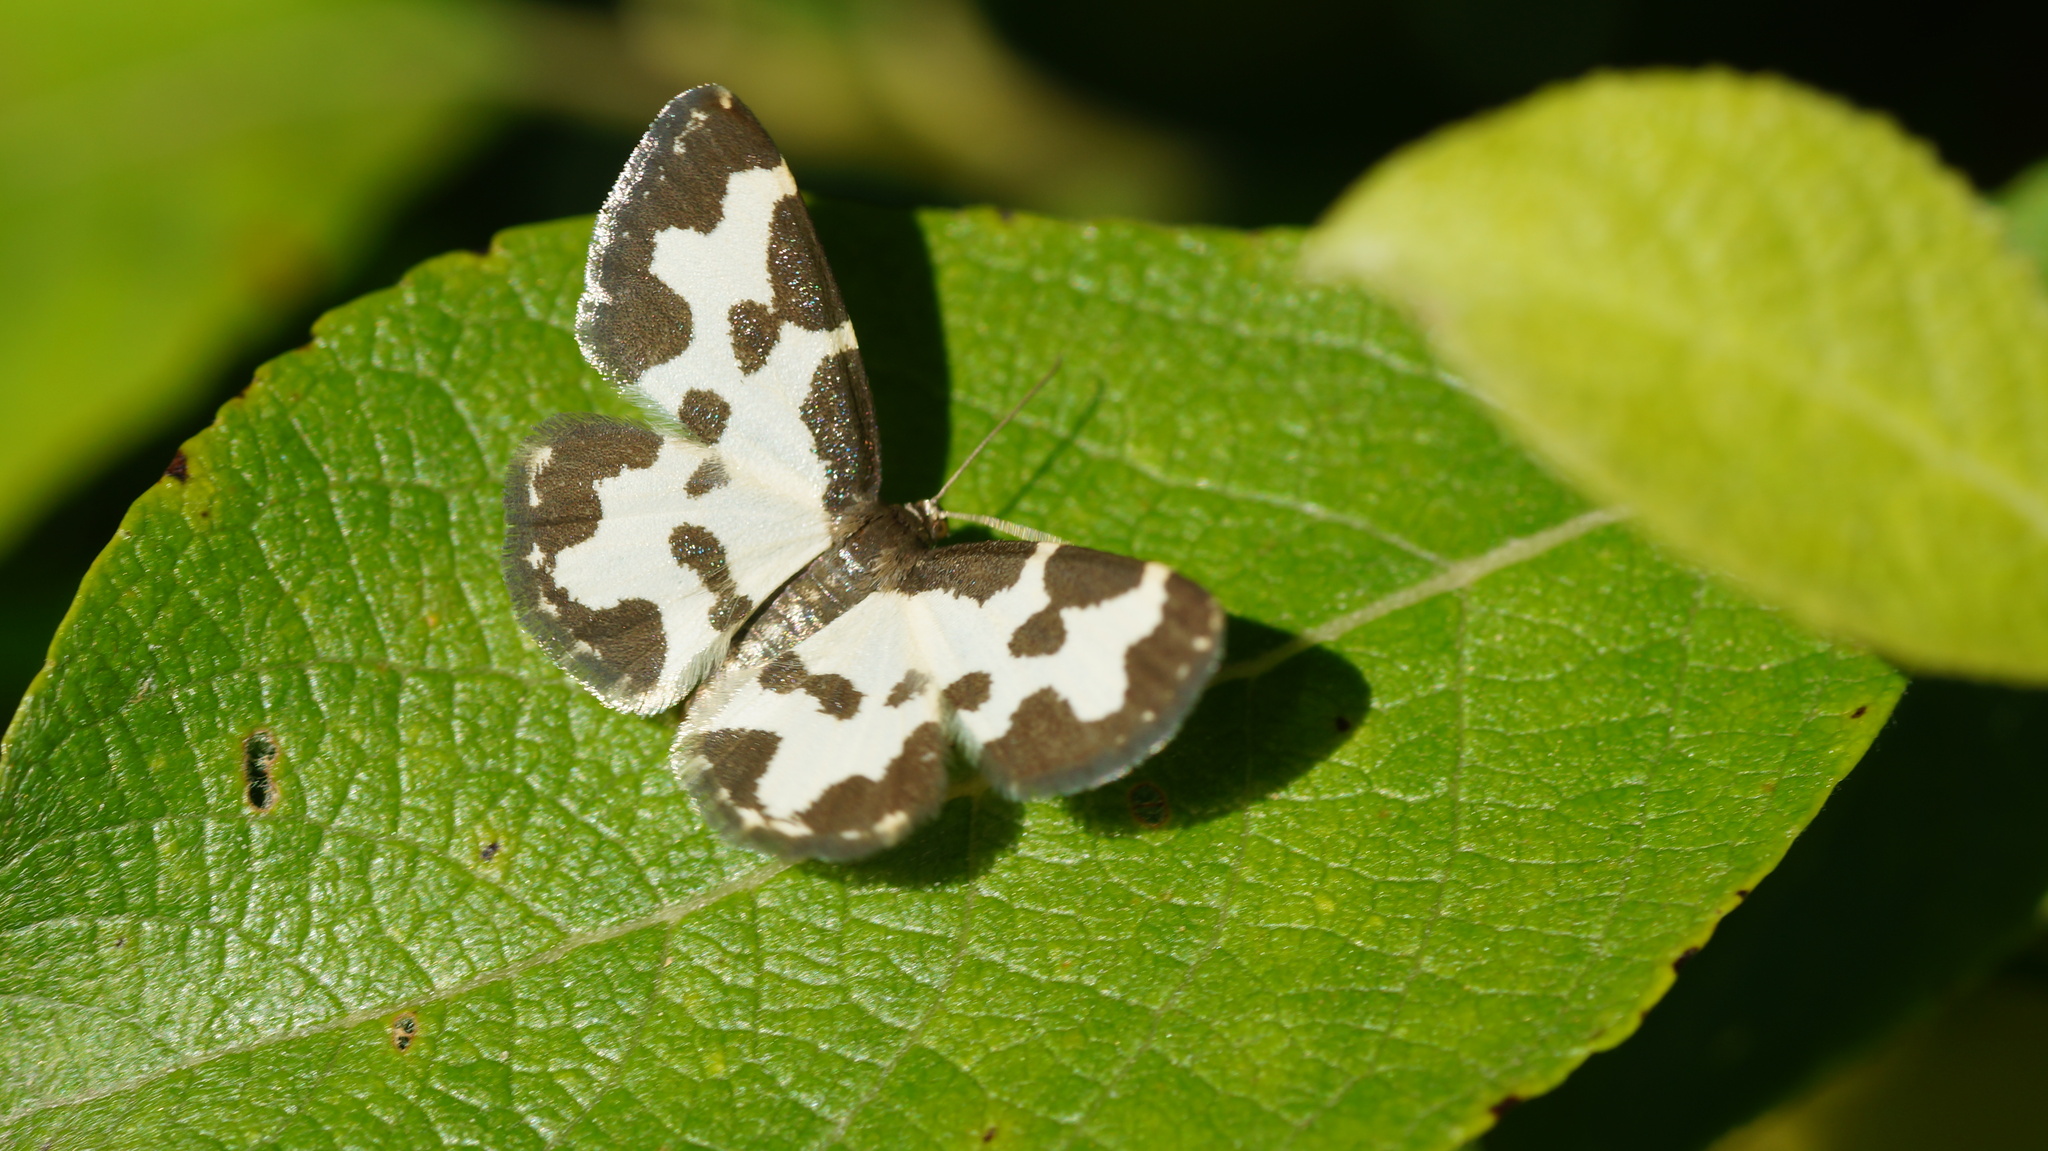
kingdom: Animalia
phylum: Arthropoda
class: Insecta
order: Lepidoptera
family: Geometridae
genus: Lomaspilis
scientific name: Lomaspilis marginata
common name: Clouded border
